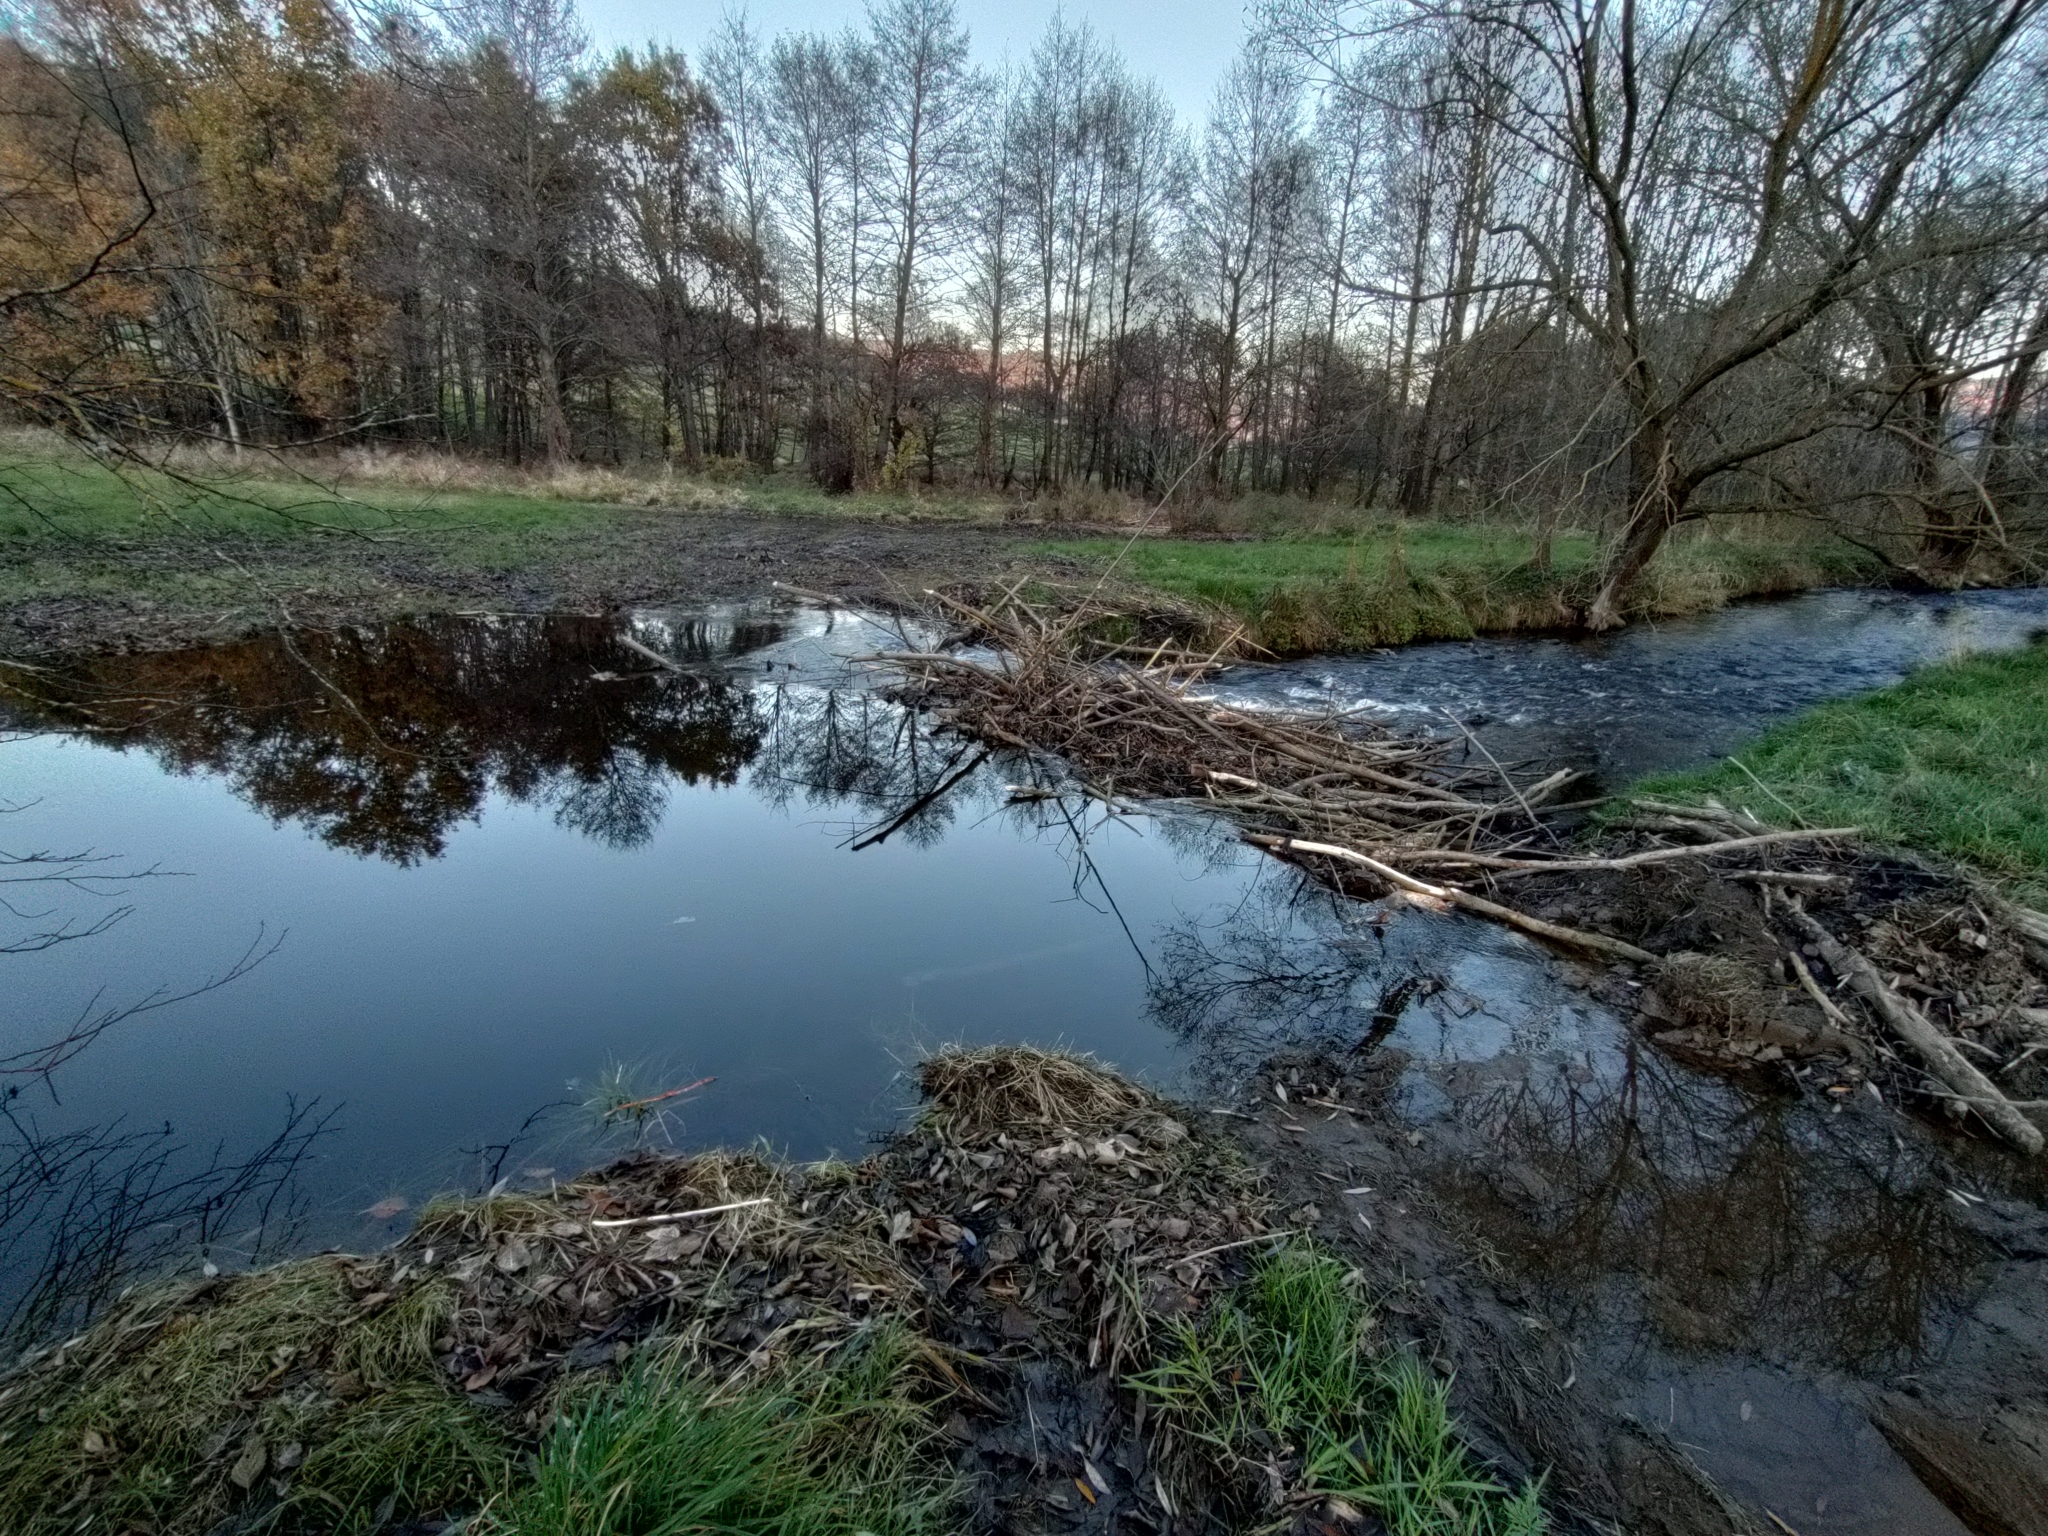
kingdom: Animalia
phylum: Chordata
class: Mammalia
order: Rodentia
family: Castoridae
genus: Castor
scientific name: Castor fiber
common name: Eurasian beaver
